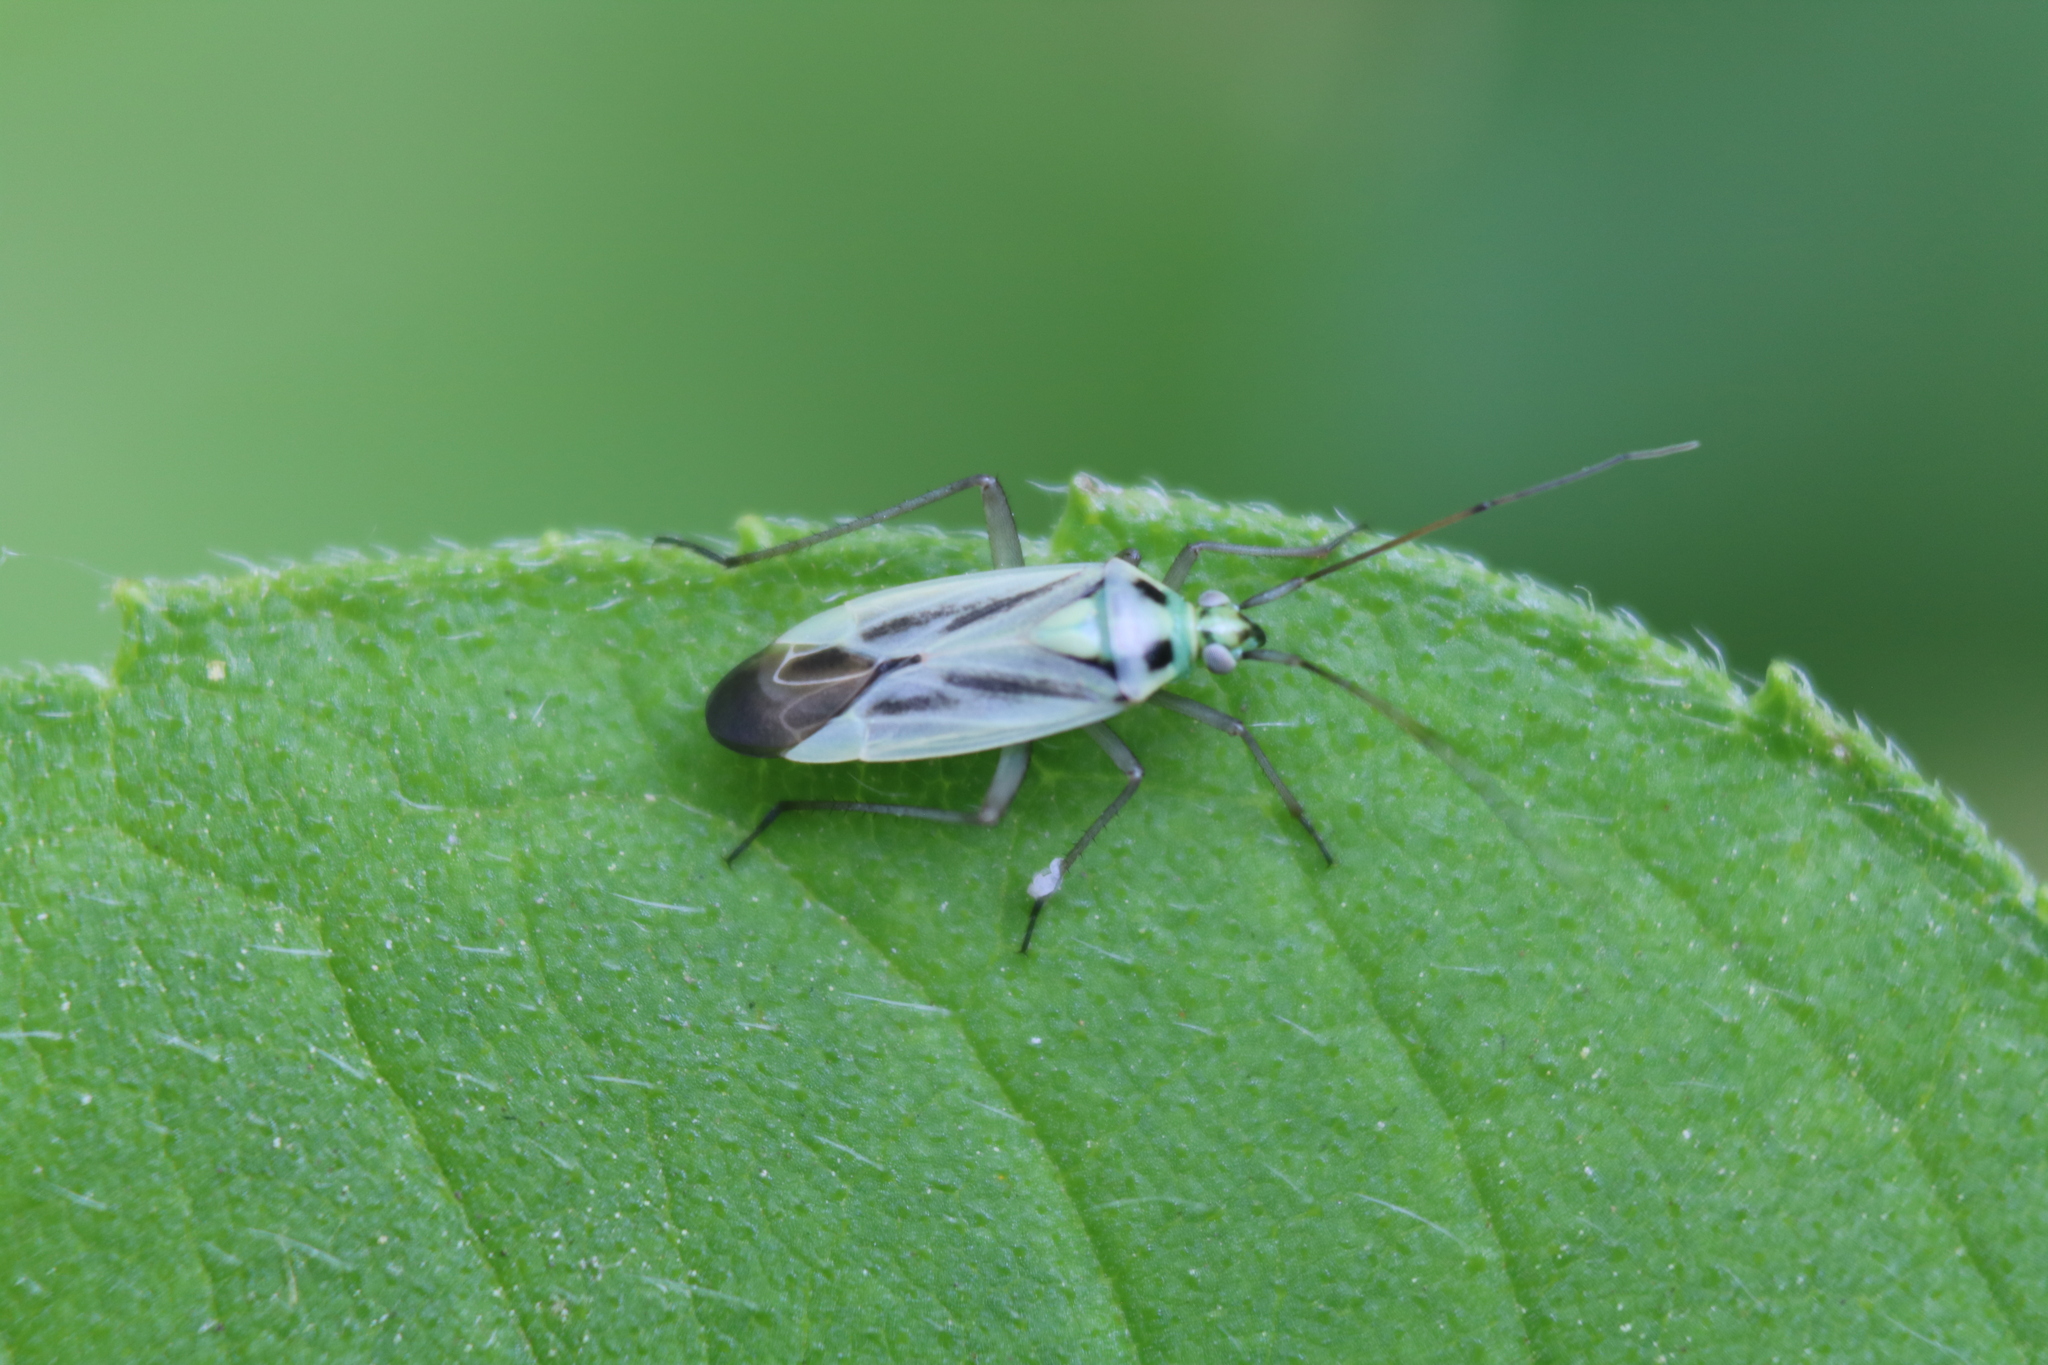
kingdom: Animalia
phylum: Arthropoda
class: Insecta
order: Hemiptera
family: Miridae
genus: Stenotus
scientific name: Stenotus binotatus
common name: Plant bug
